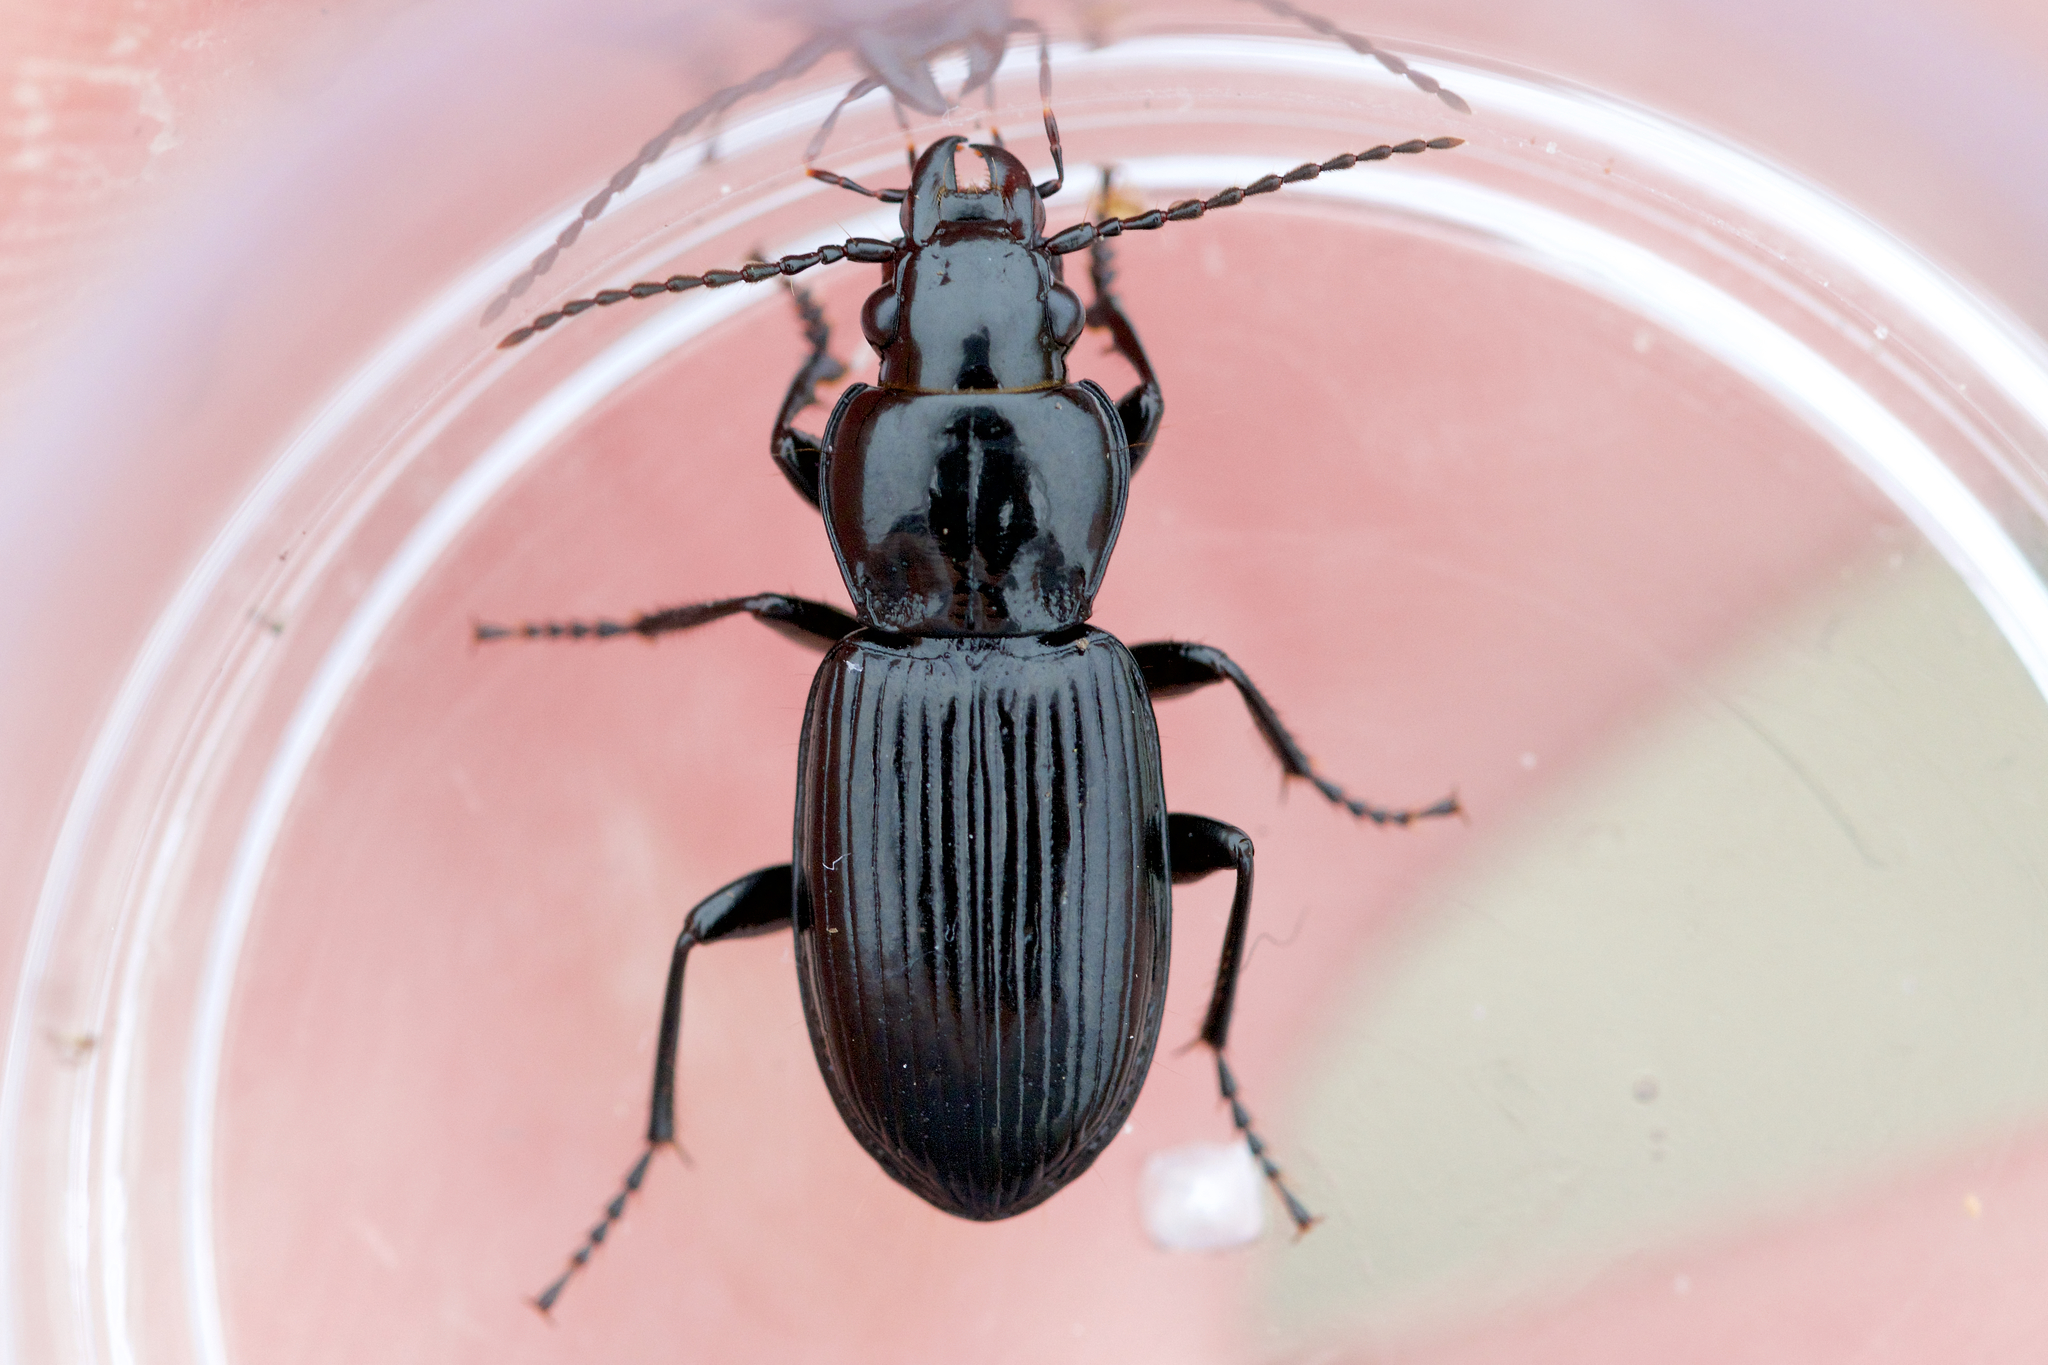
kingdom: Animalia
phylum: Arthropoda
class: Insecta
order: Coleoptera
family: Carabidae
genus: Pterostichus
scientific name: Pterostichus corvinus
